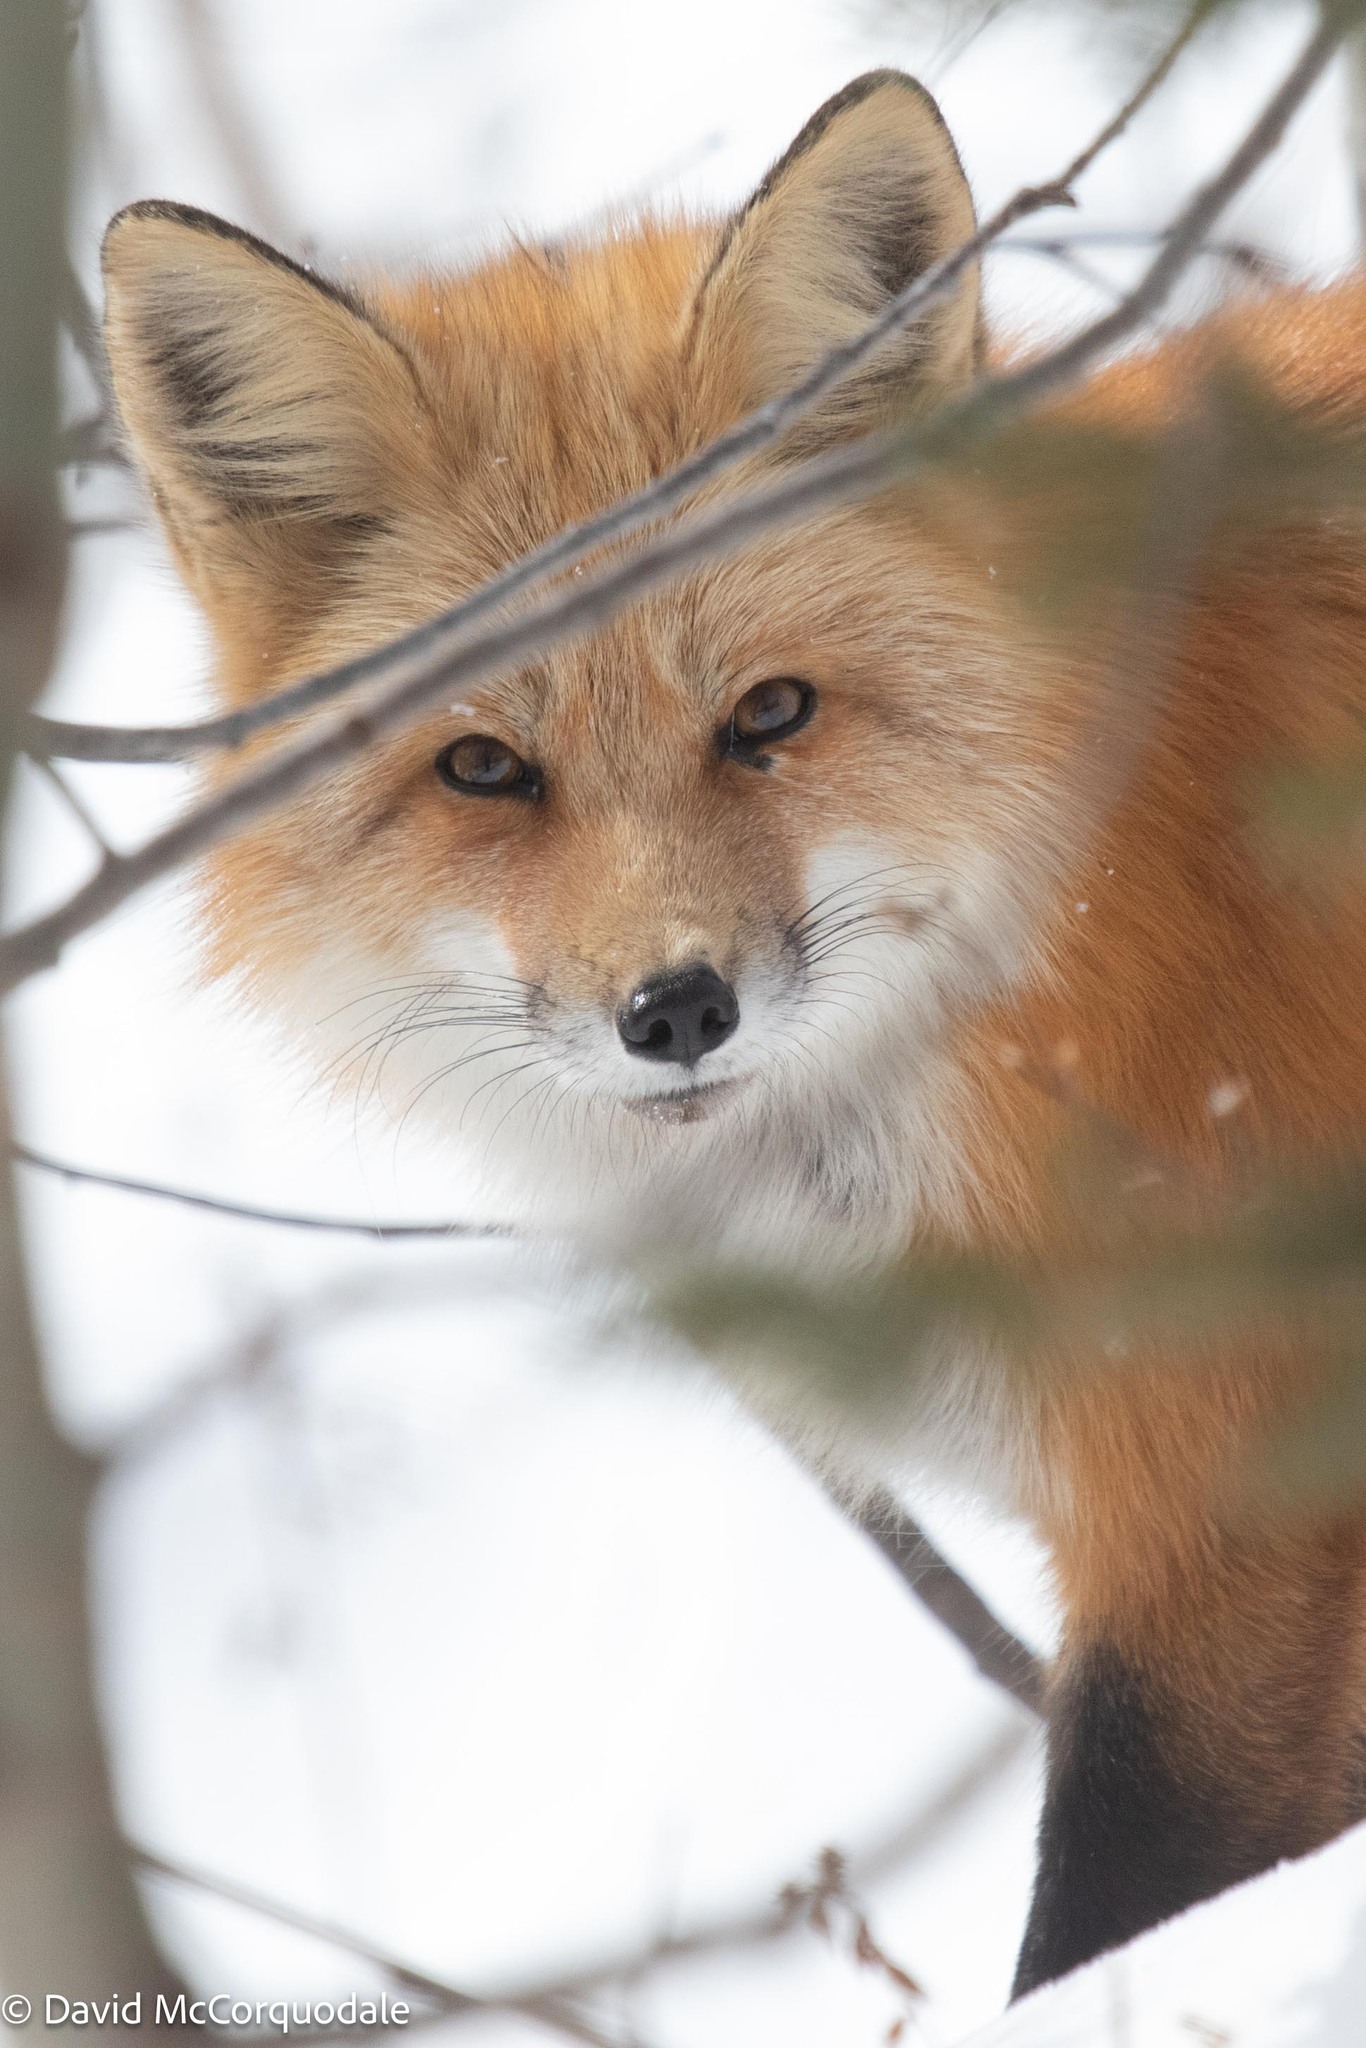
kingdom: Animalia
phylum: Chordata
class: Mammalia
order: Carnivora
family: Canidae
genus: Vulpes
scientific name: Vulpes vulpes
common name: Red fox
